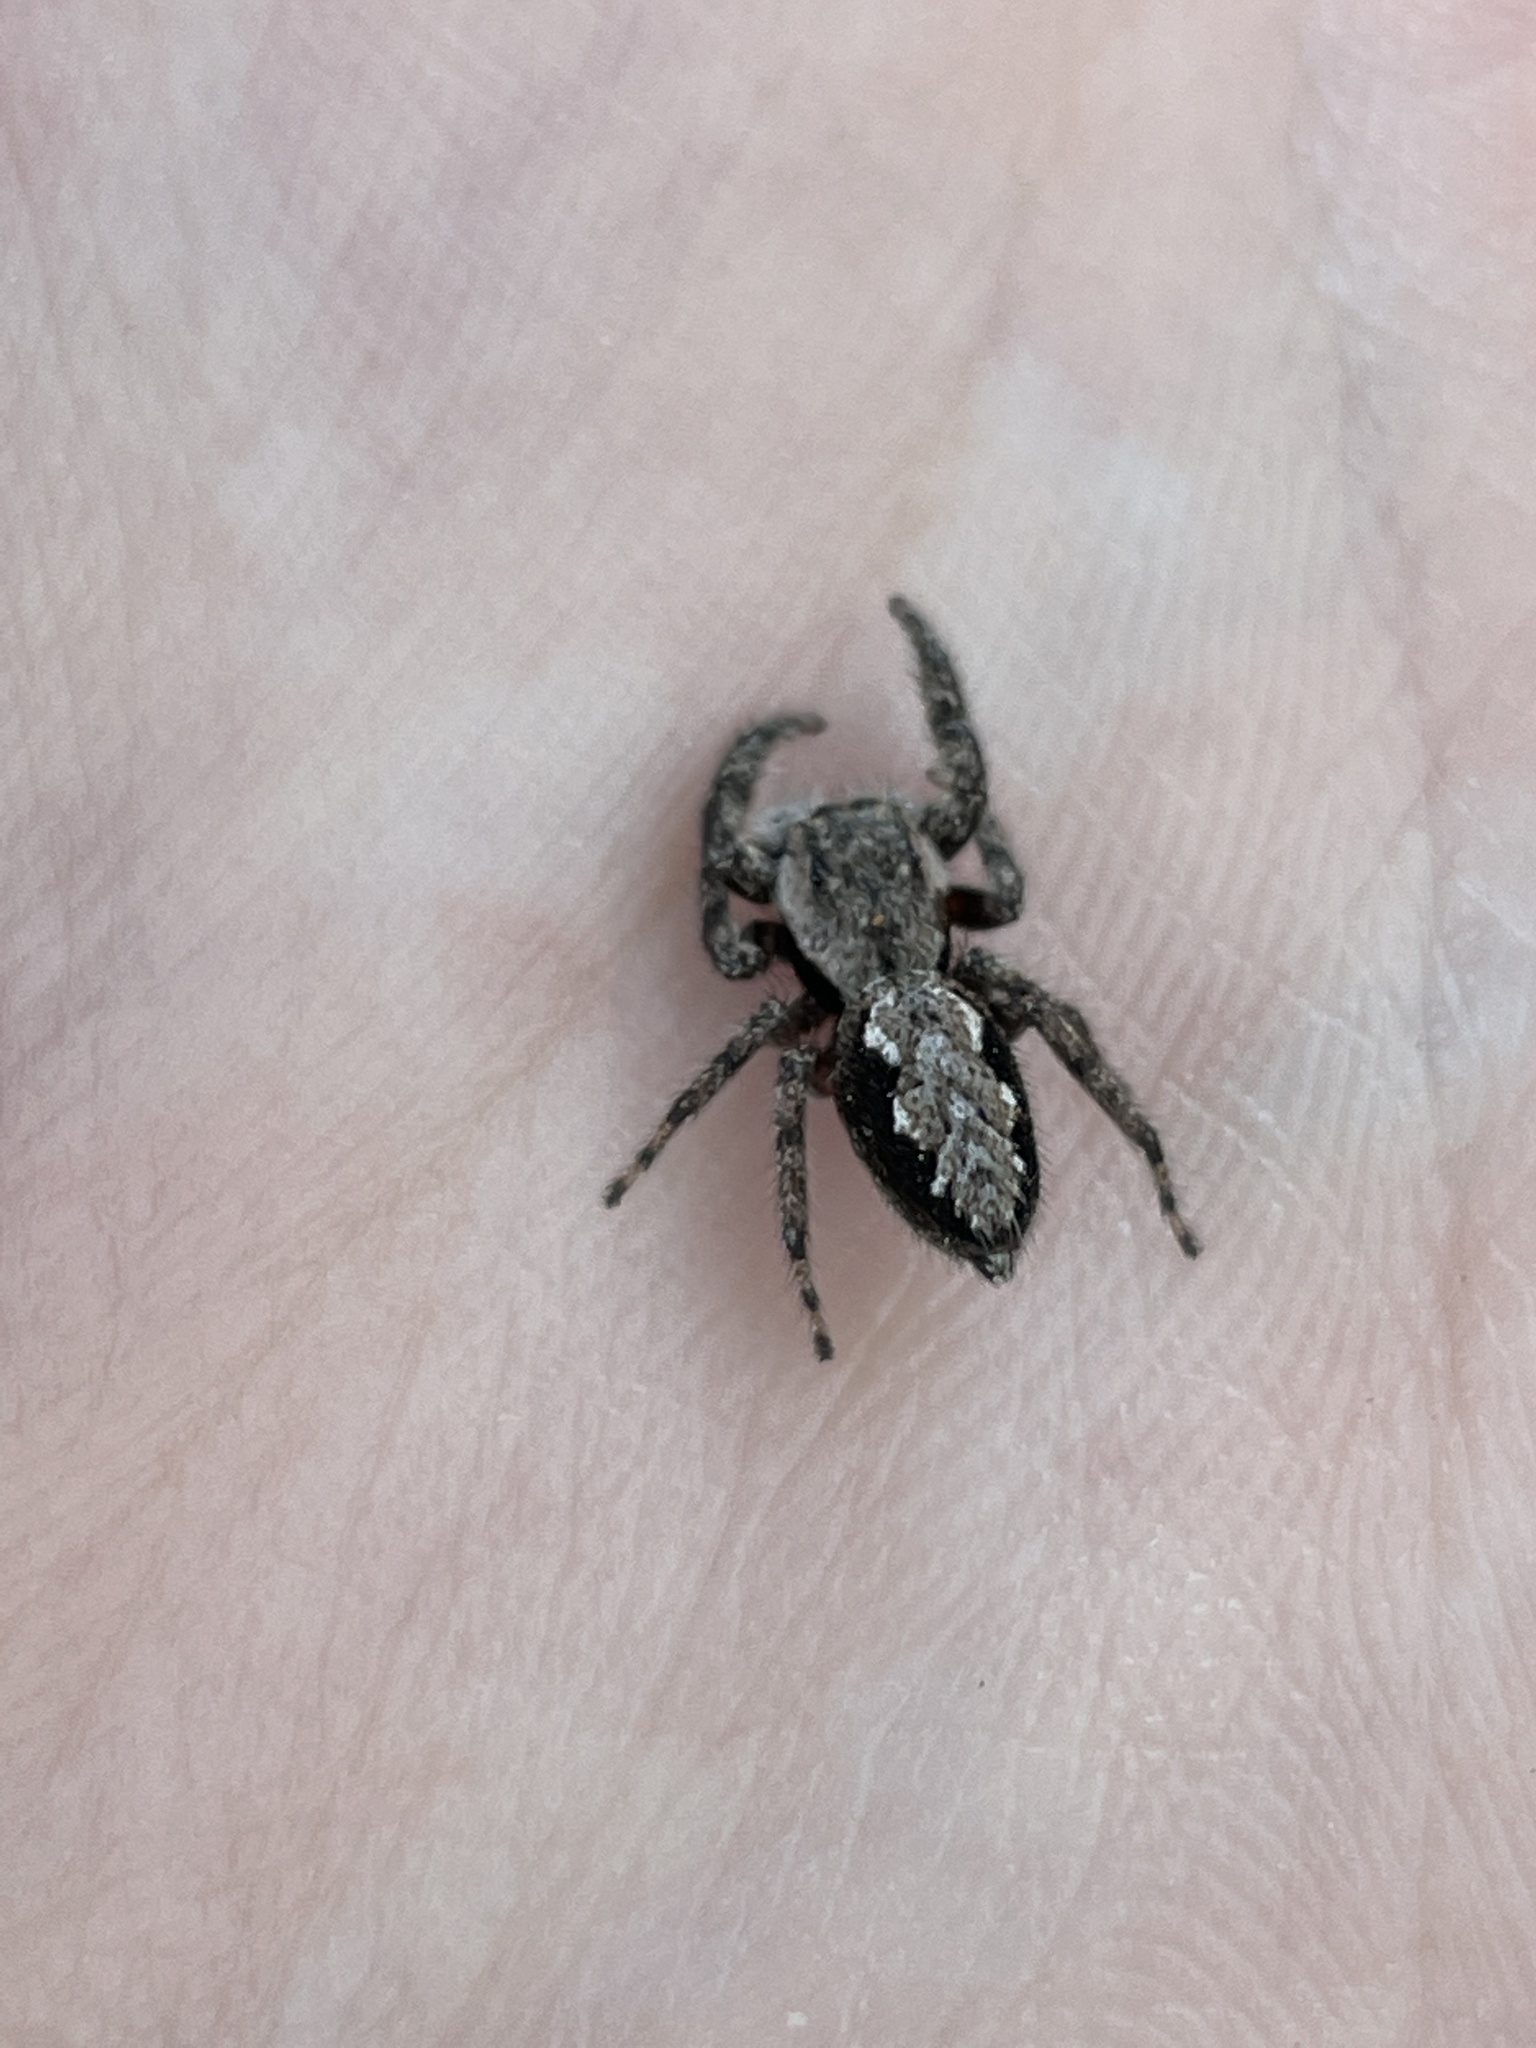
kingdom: Animalia
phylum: Arthropoda
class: Arachnida
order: Araneae
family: Salticidae
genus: Platycryptus
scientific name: Platycryptus undatus
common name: Tan jumping spider
